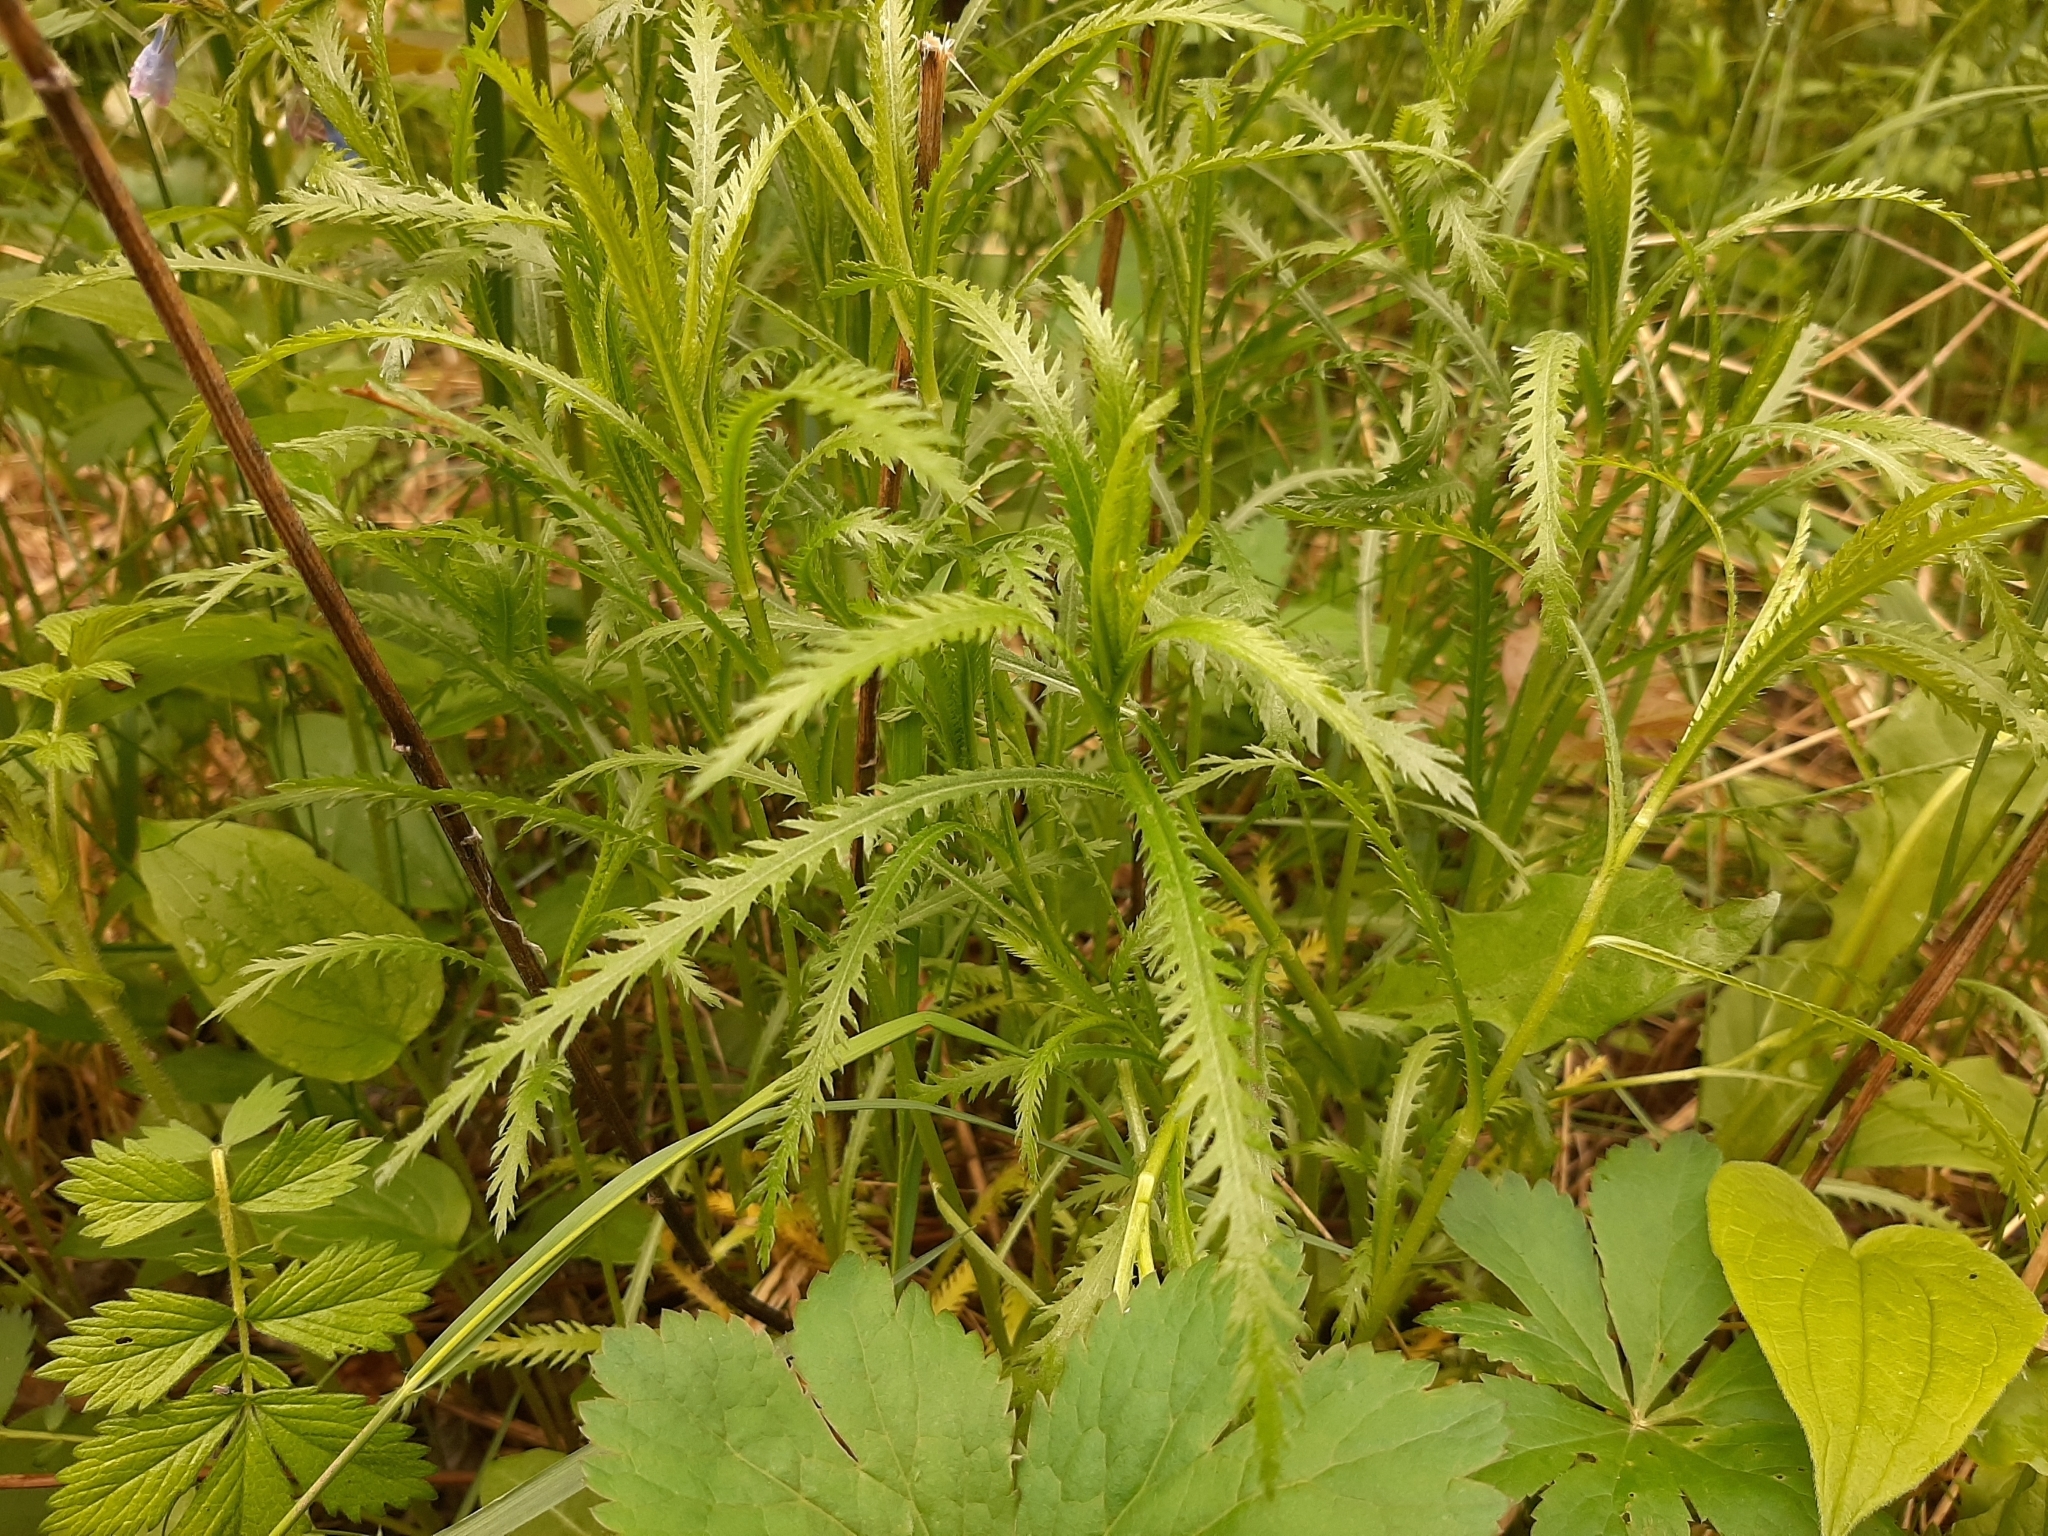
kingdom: Plantae
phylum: Tracheophyta
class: Magnoliopsida
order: Asterales
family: Asteraceae
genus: Achillea
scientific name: Achillea alpina
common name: Siberian yarrow
